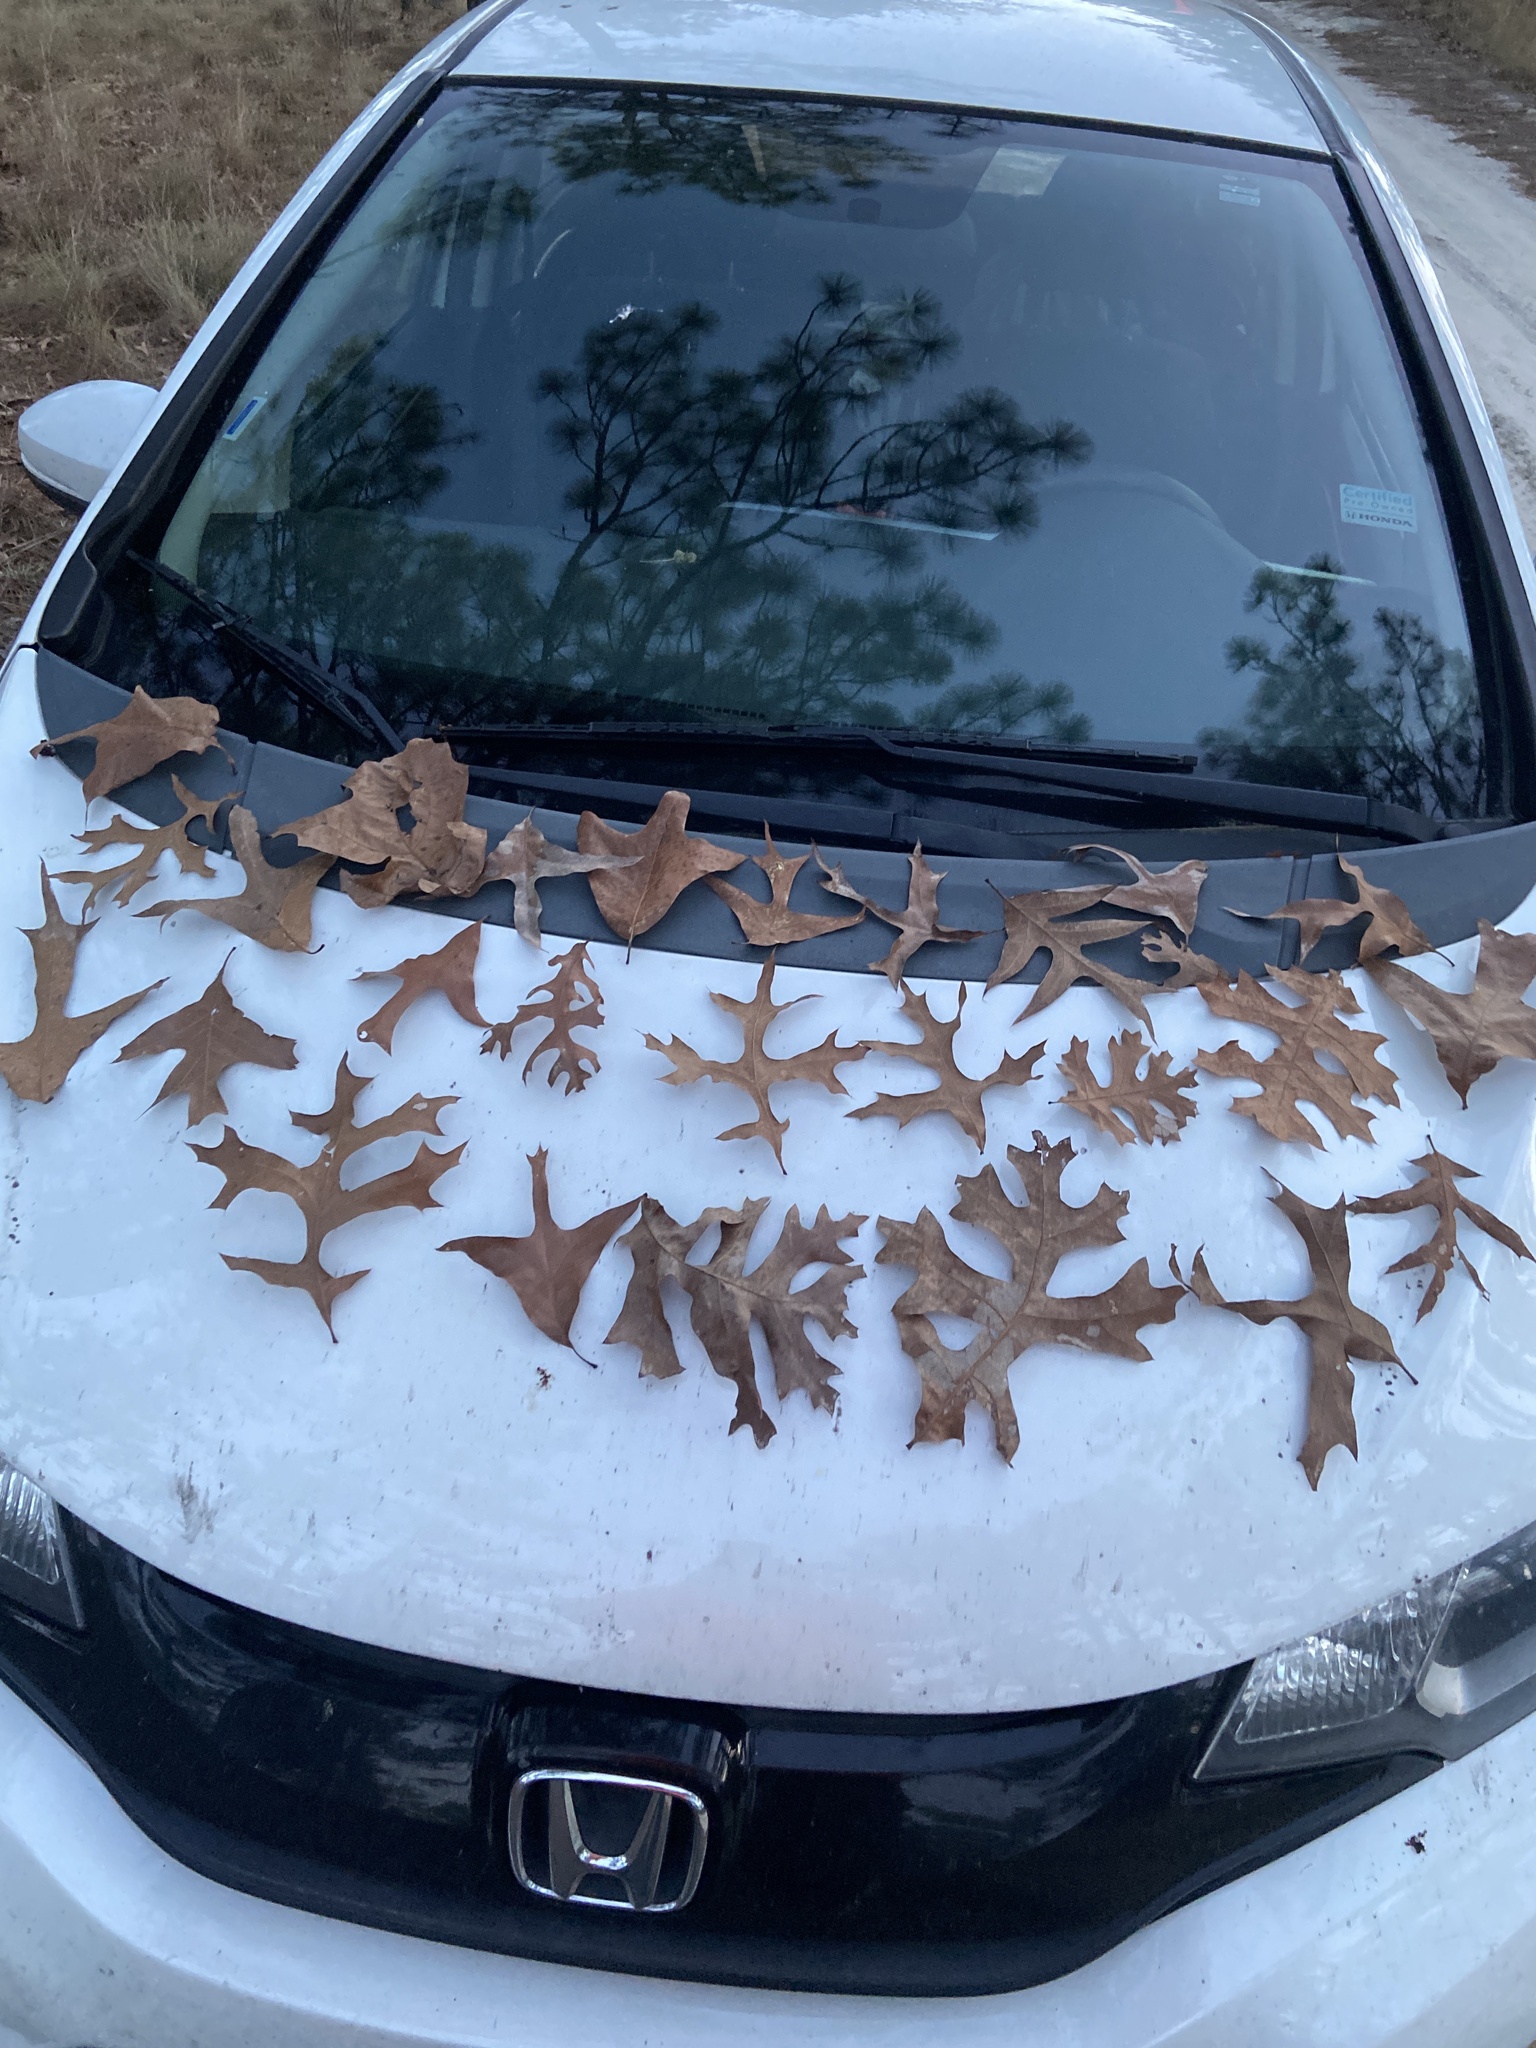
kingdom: Plantae
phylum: Tracheophyta
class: Magnoliopsida
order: Fagales
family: Fagaceae
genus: Quercus
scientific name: Quercus laevis
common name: Turkey oak
